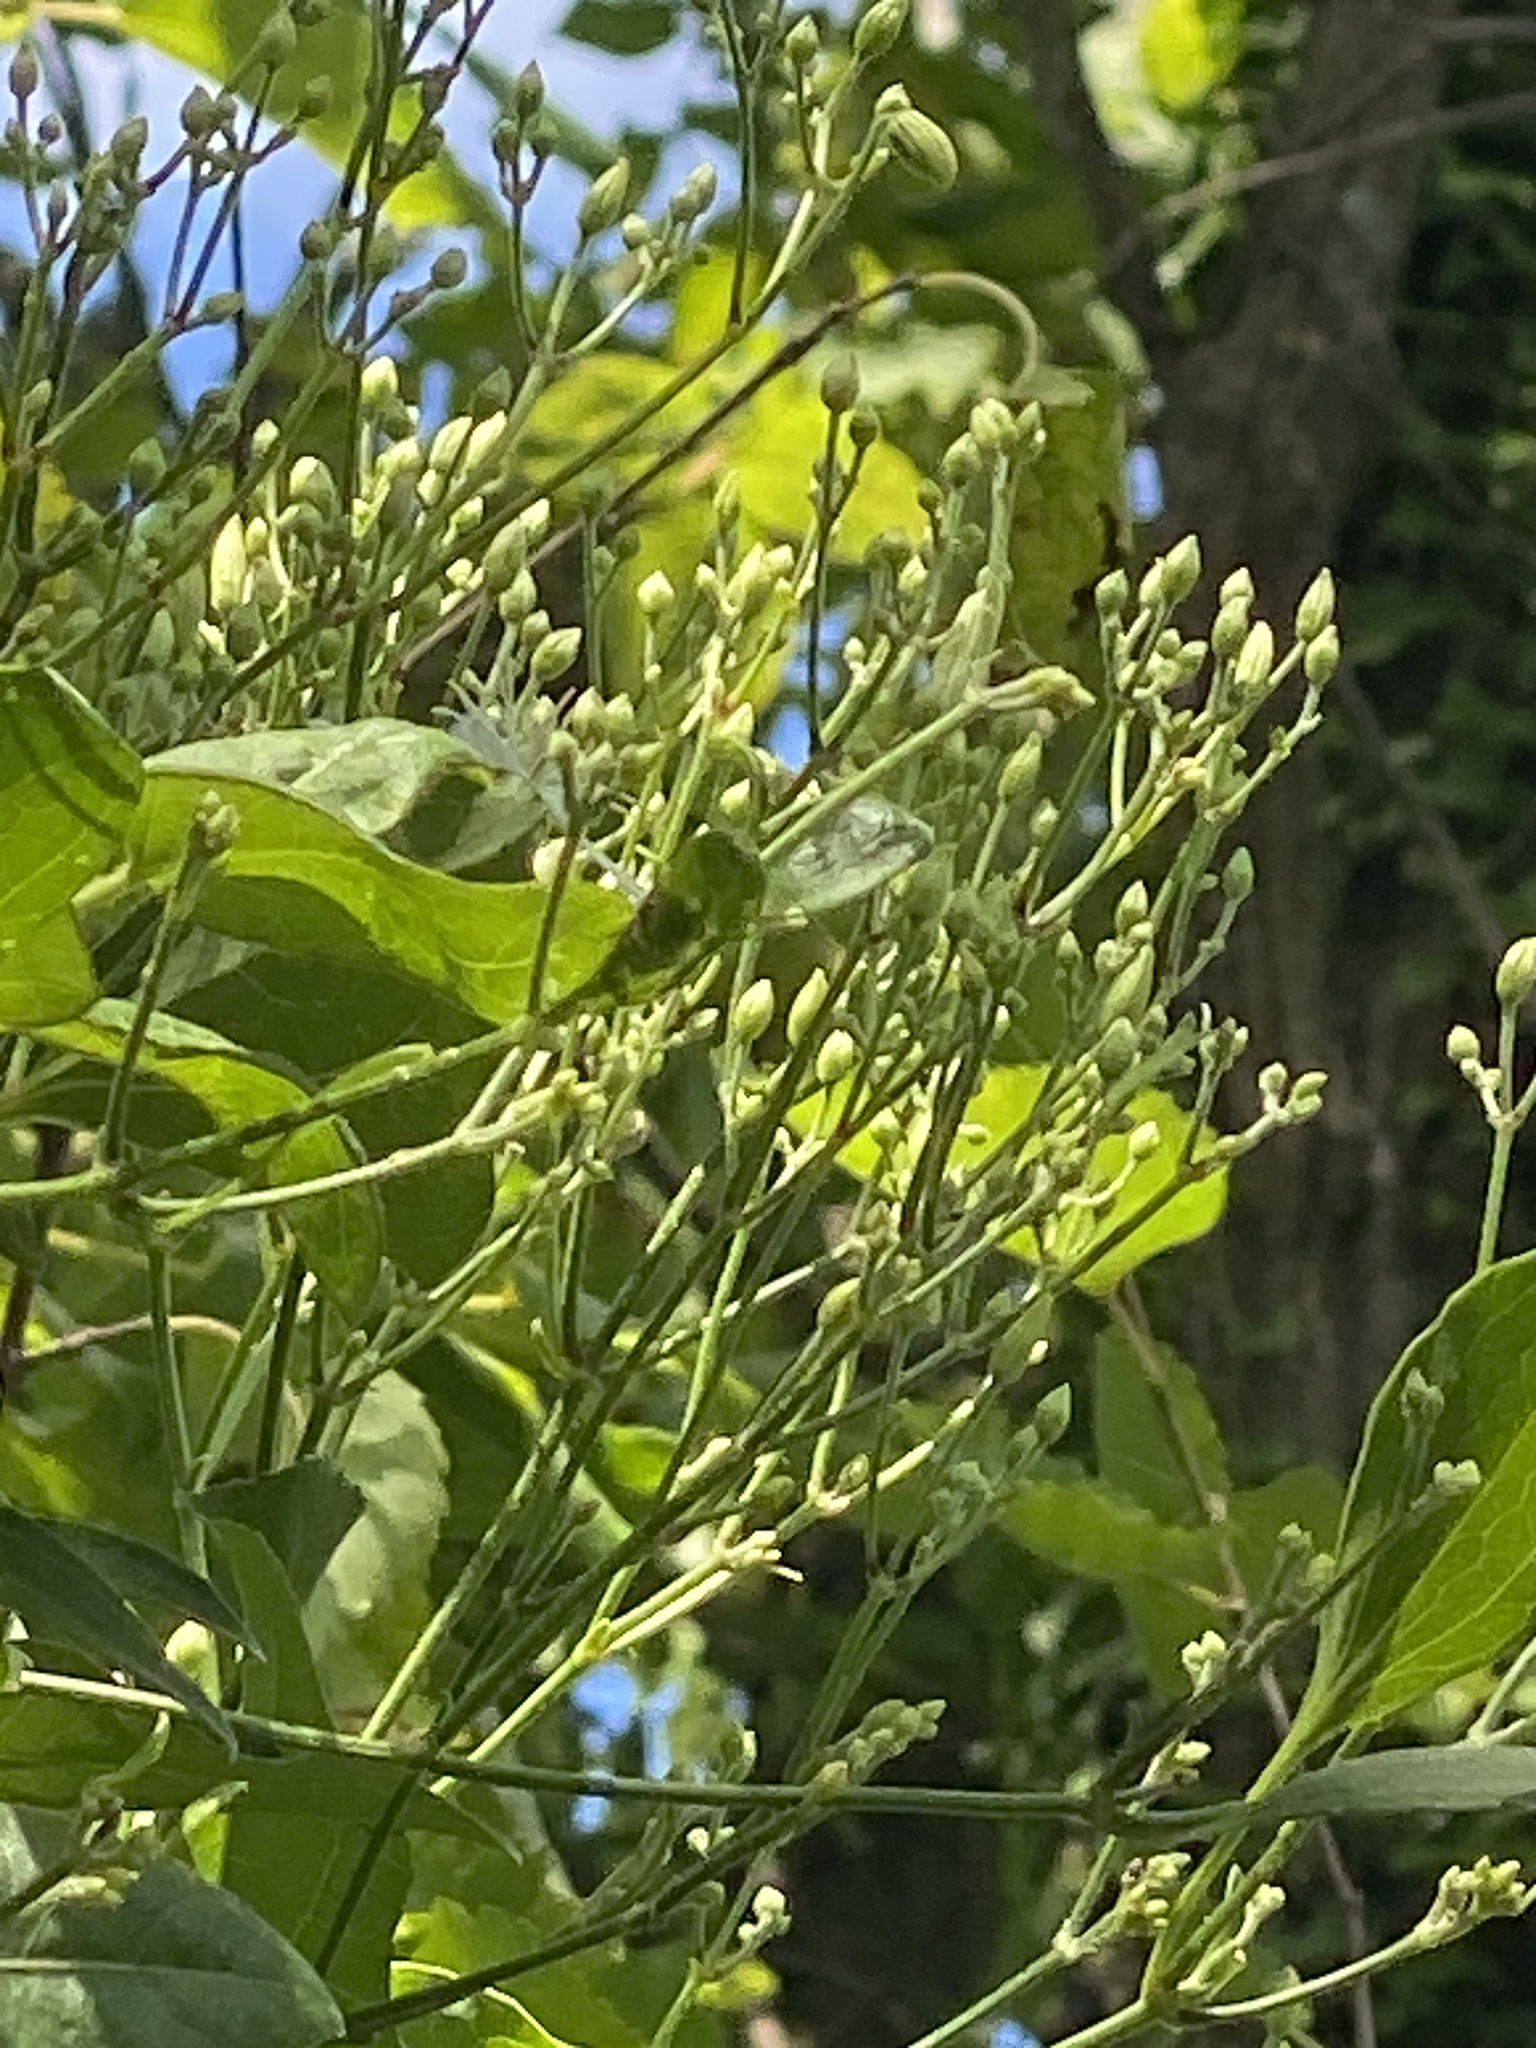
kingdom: Plantae
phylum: Tracheophyta
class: Magnoliopsida
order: Ranunculales
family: Ranunculaceae
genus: Clematis
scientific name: Clematis terniflora
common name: Sweet autumn clematis
